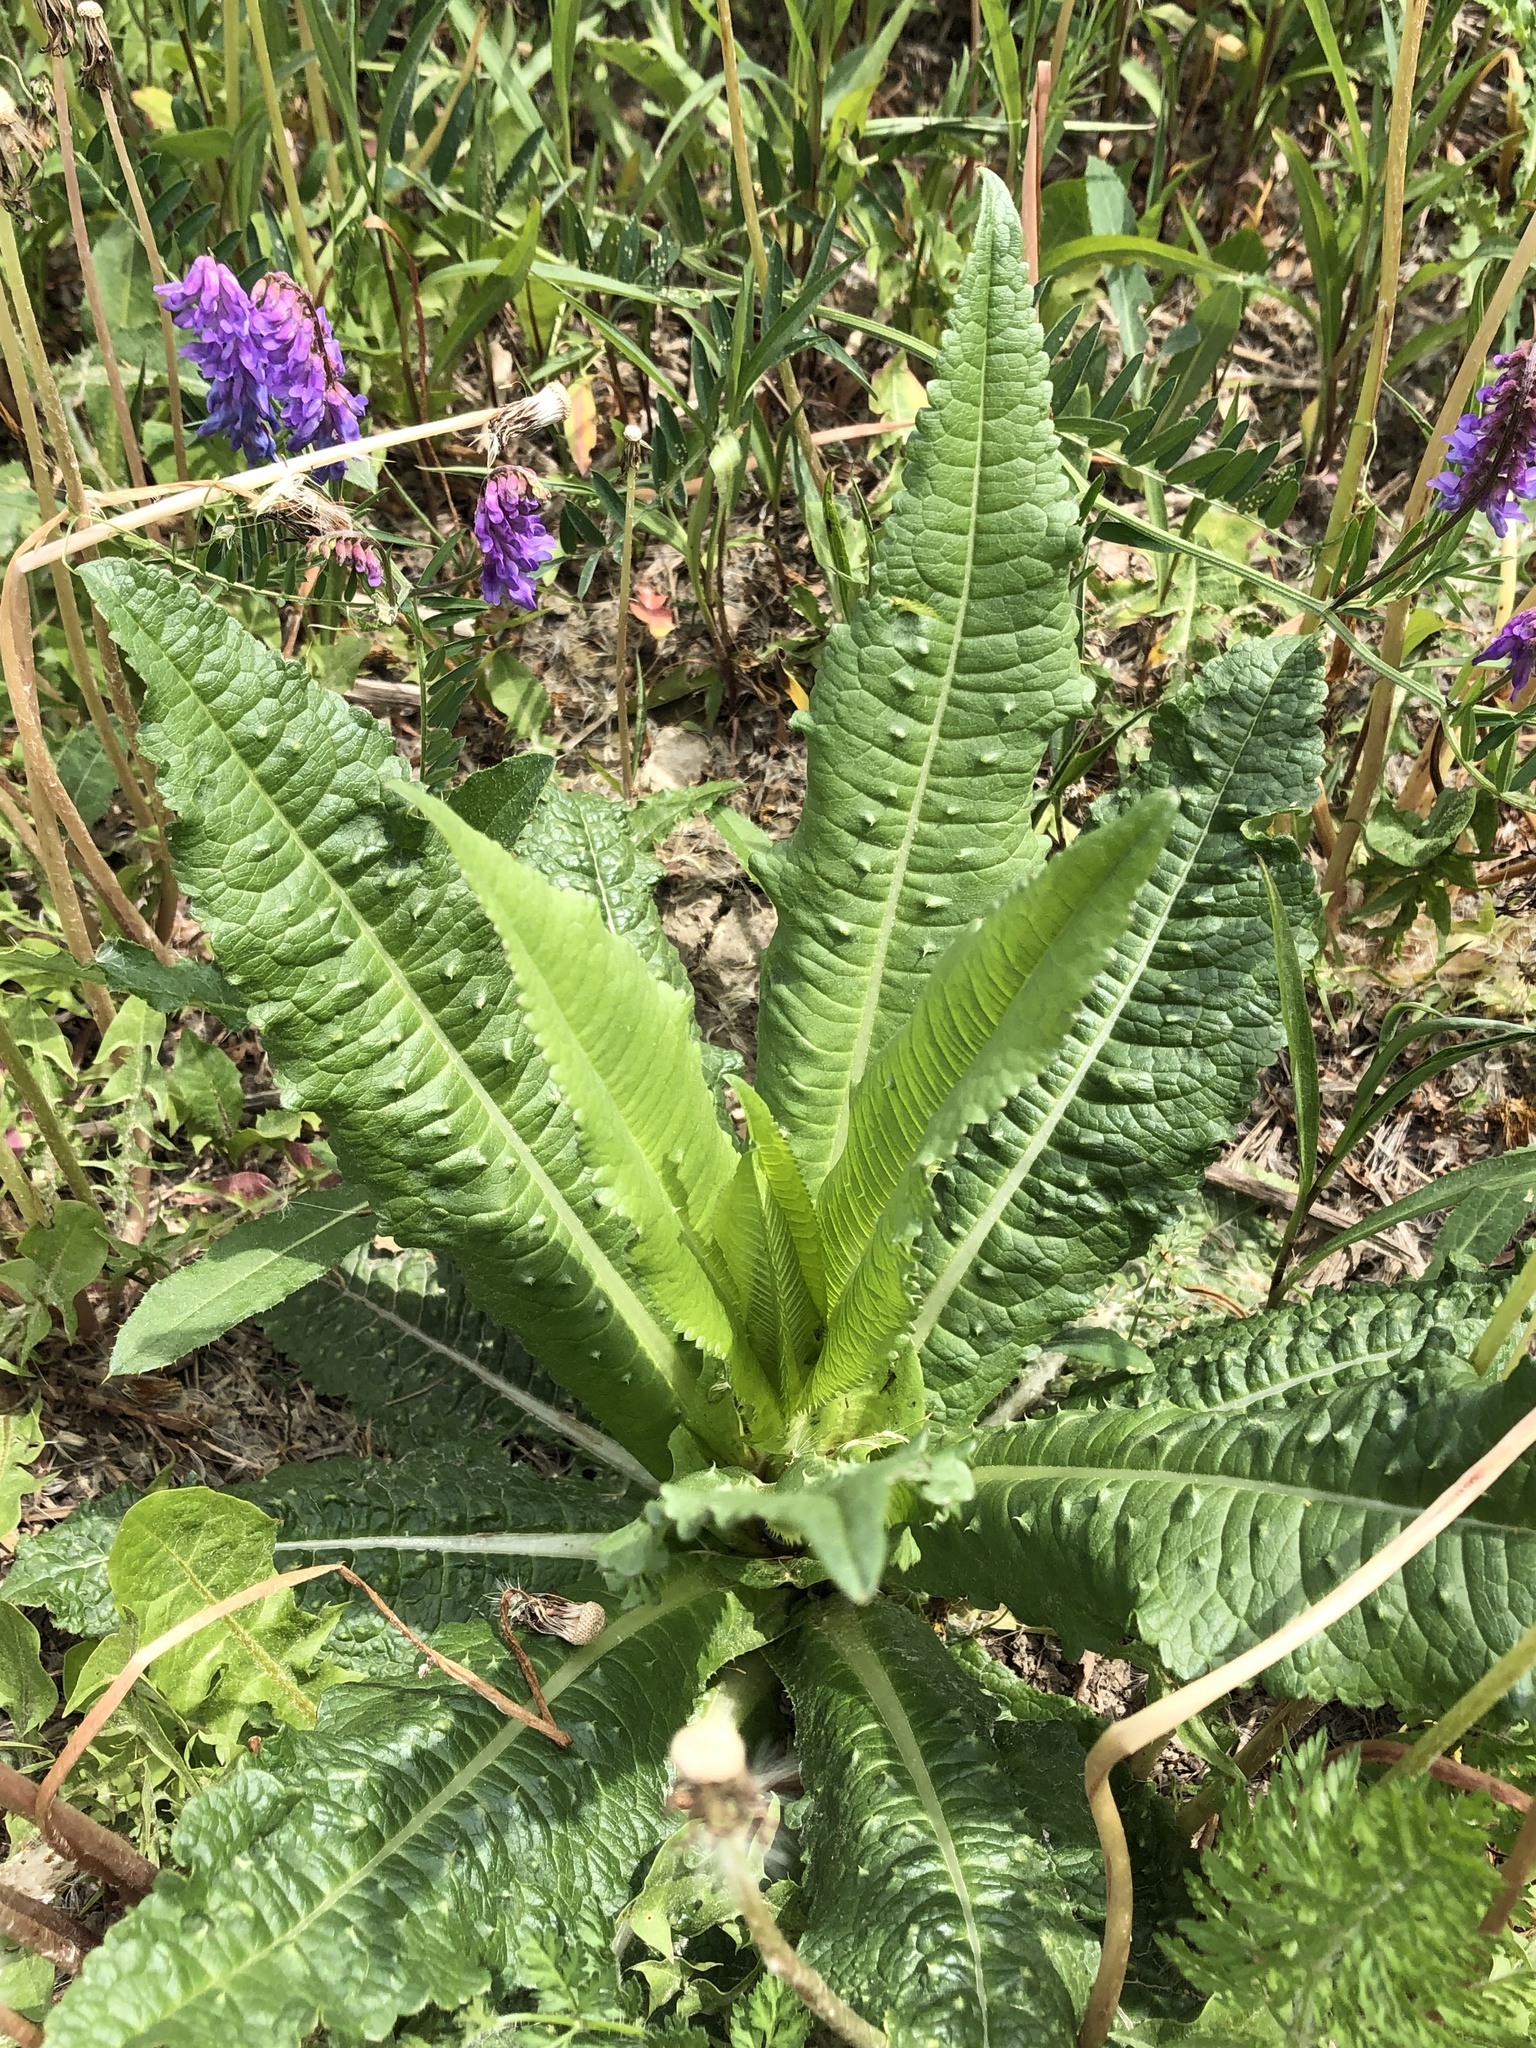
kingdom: Plantae
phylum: Tracheophyta
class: Magnoliopsida
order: Dipsacales
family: Caprifoliaceae
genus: Dipsacus
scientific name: Dipsacus fullonum
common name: Teasel
